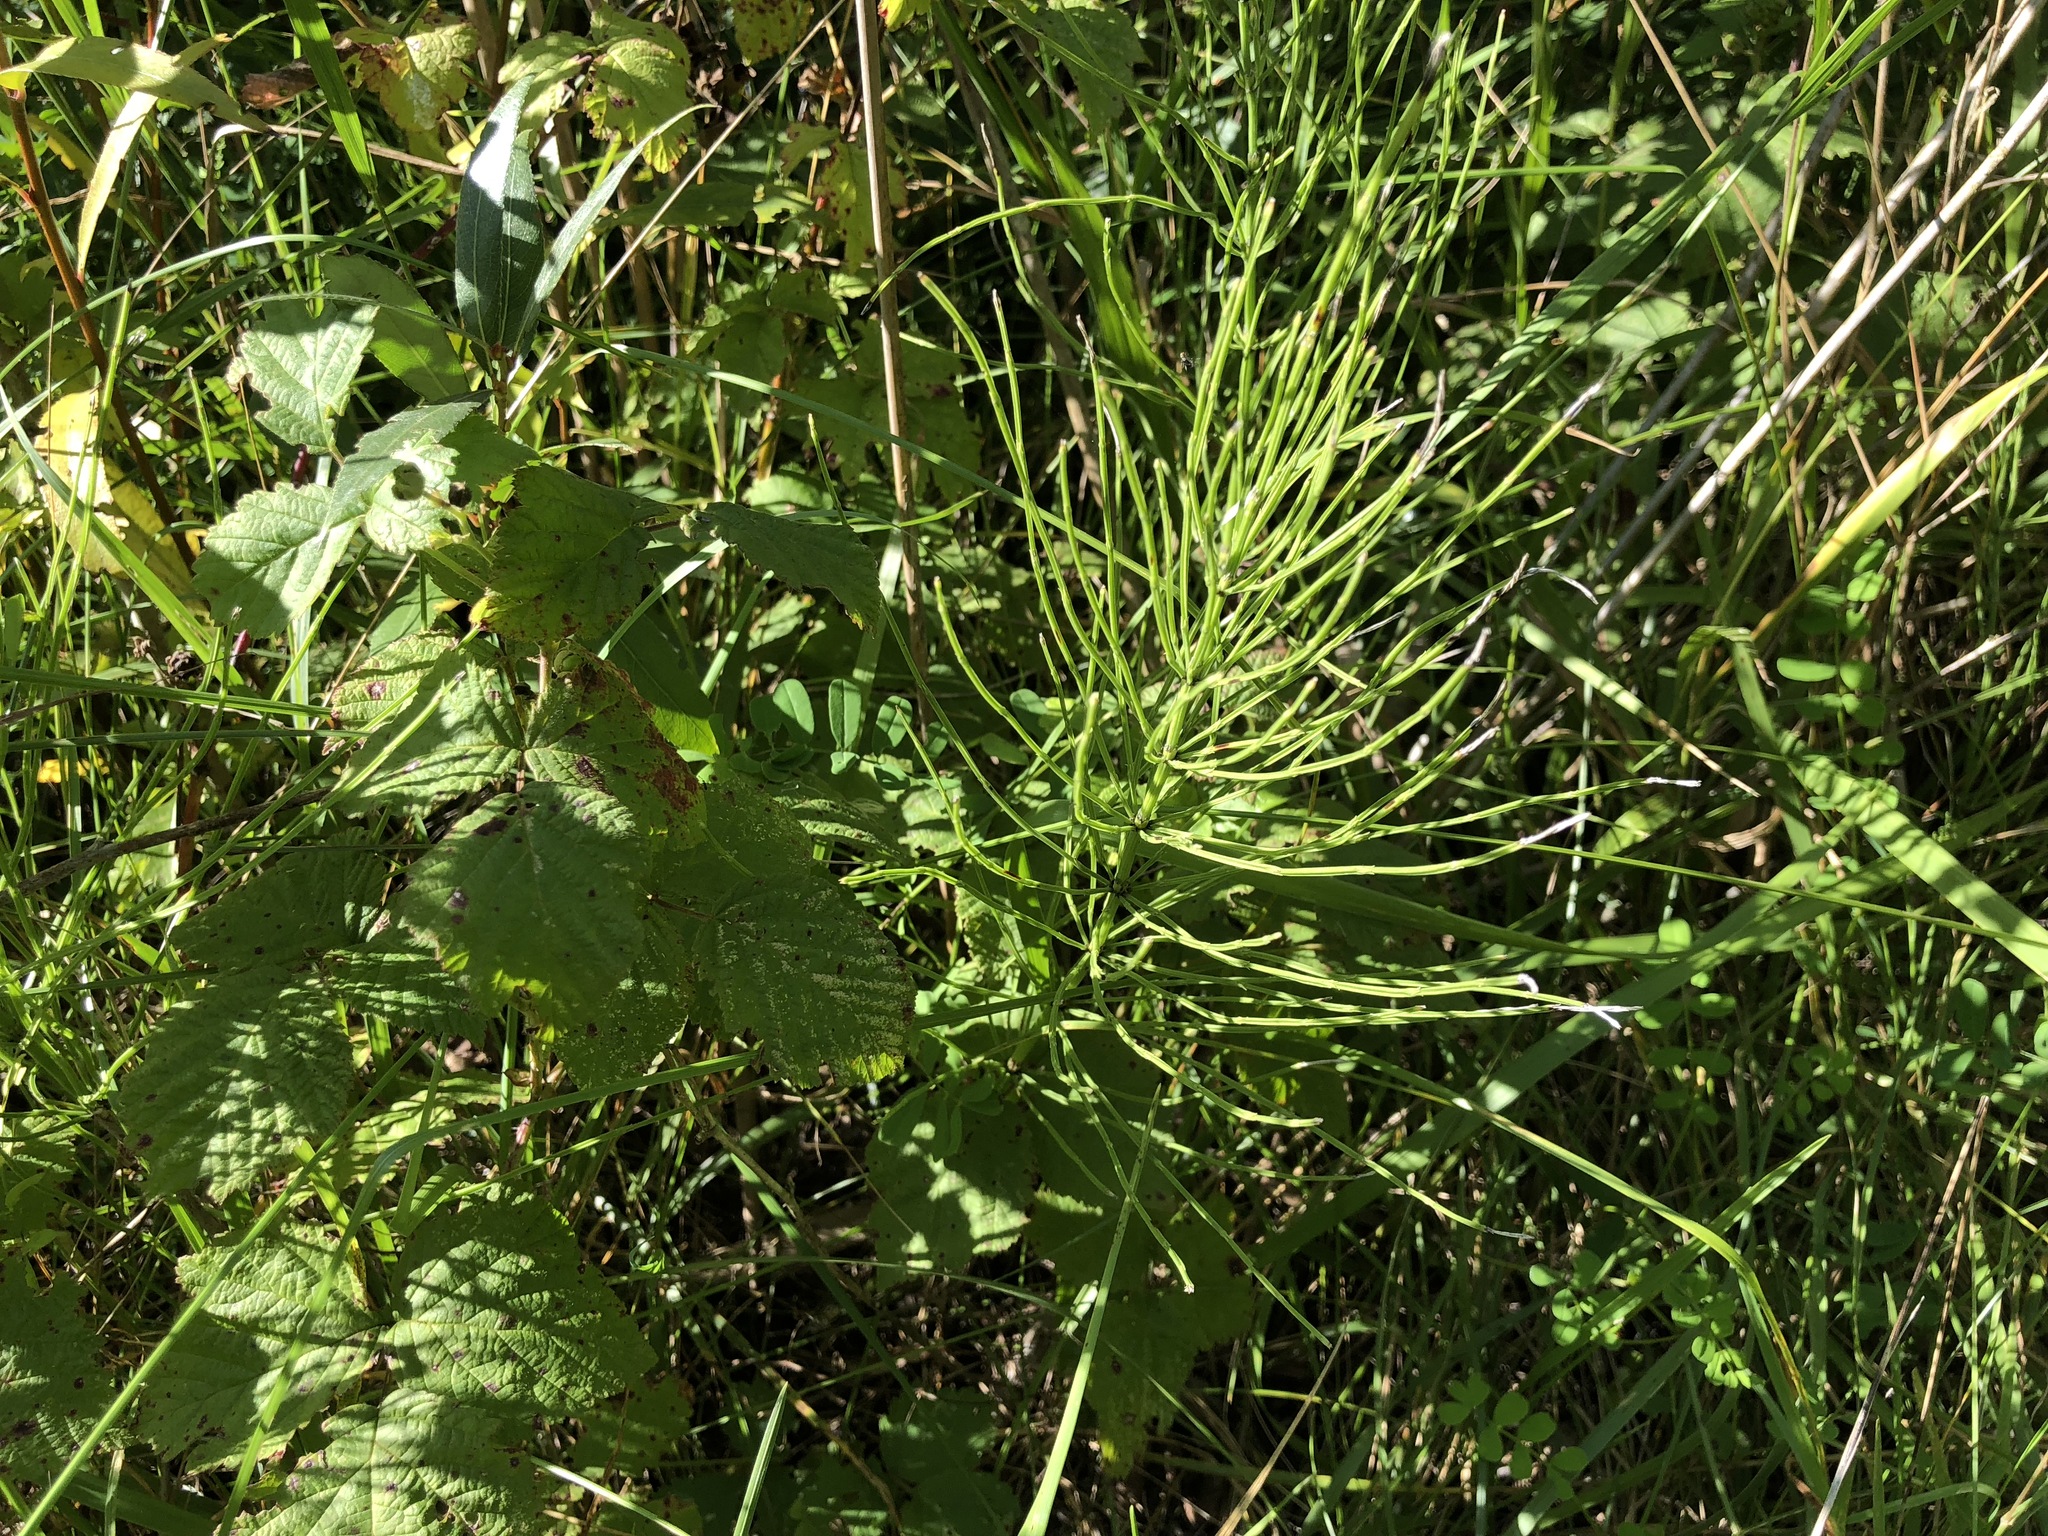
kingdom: Plantae
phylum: Tracheophyta
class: Polypodiopsida
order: Equisetales
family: Equisetaceae
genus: Equisetum
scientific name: Equisetum arvense
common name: Field horsetail
